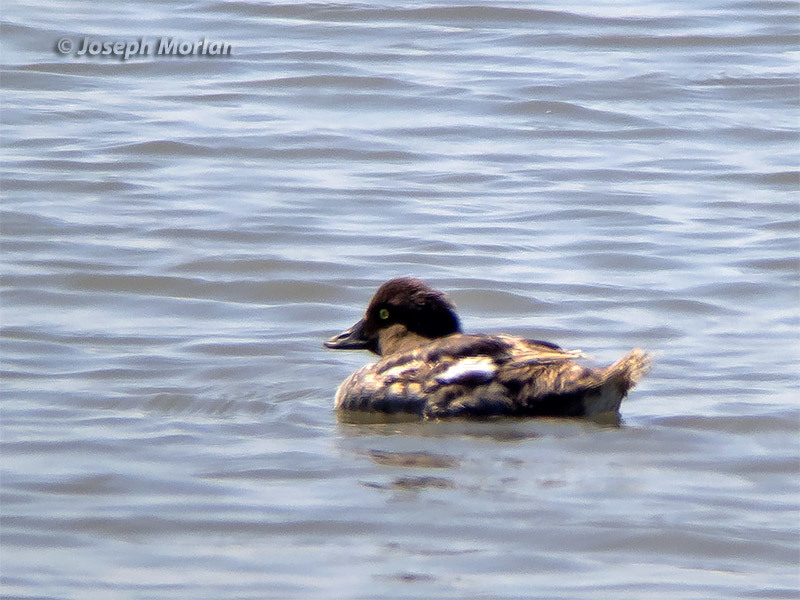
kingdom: Animalia
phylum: Chordata
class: Aves
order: Anseriformes
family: Anatidae
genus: Bucephala
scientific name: Bucephala clangula
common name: Common goldeneye
